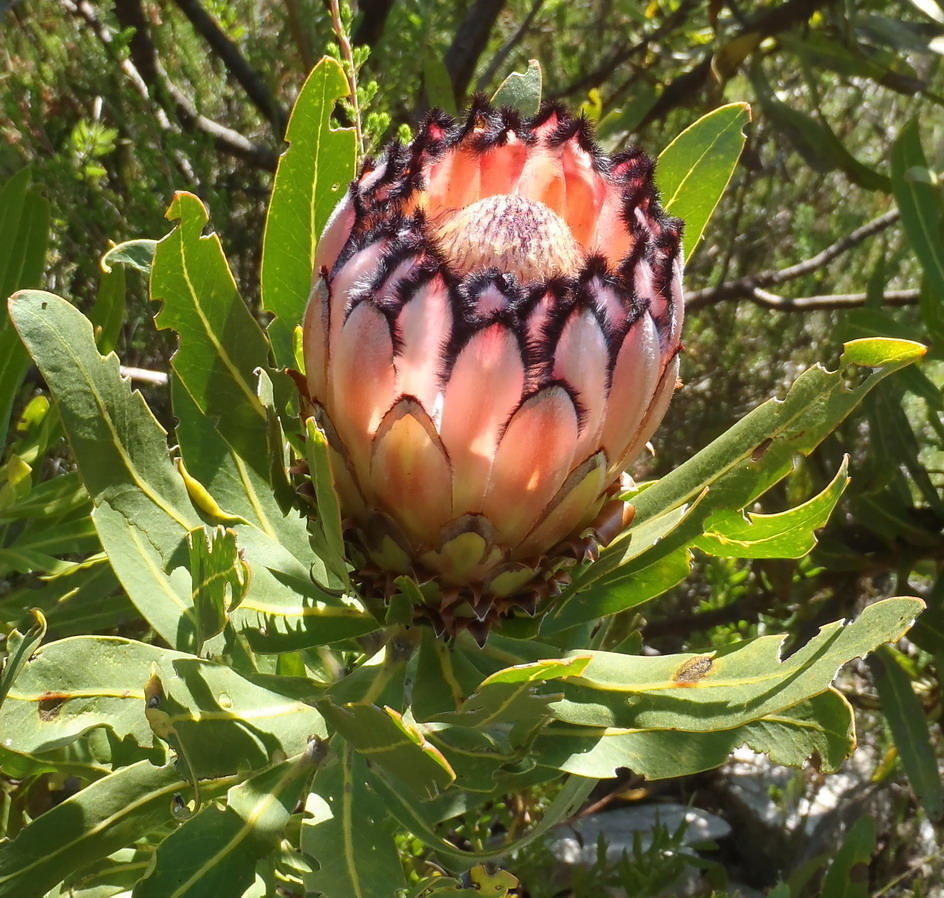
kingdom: Plantae
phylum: Tracheophyta
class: Magnoliopsida
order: Proteales
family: Proteaceae
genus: Protea
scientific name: Protea neriifolia
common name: Blue sugarbush
